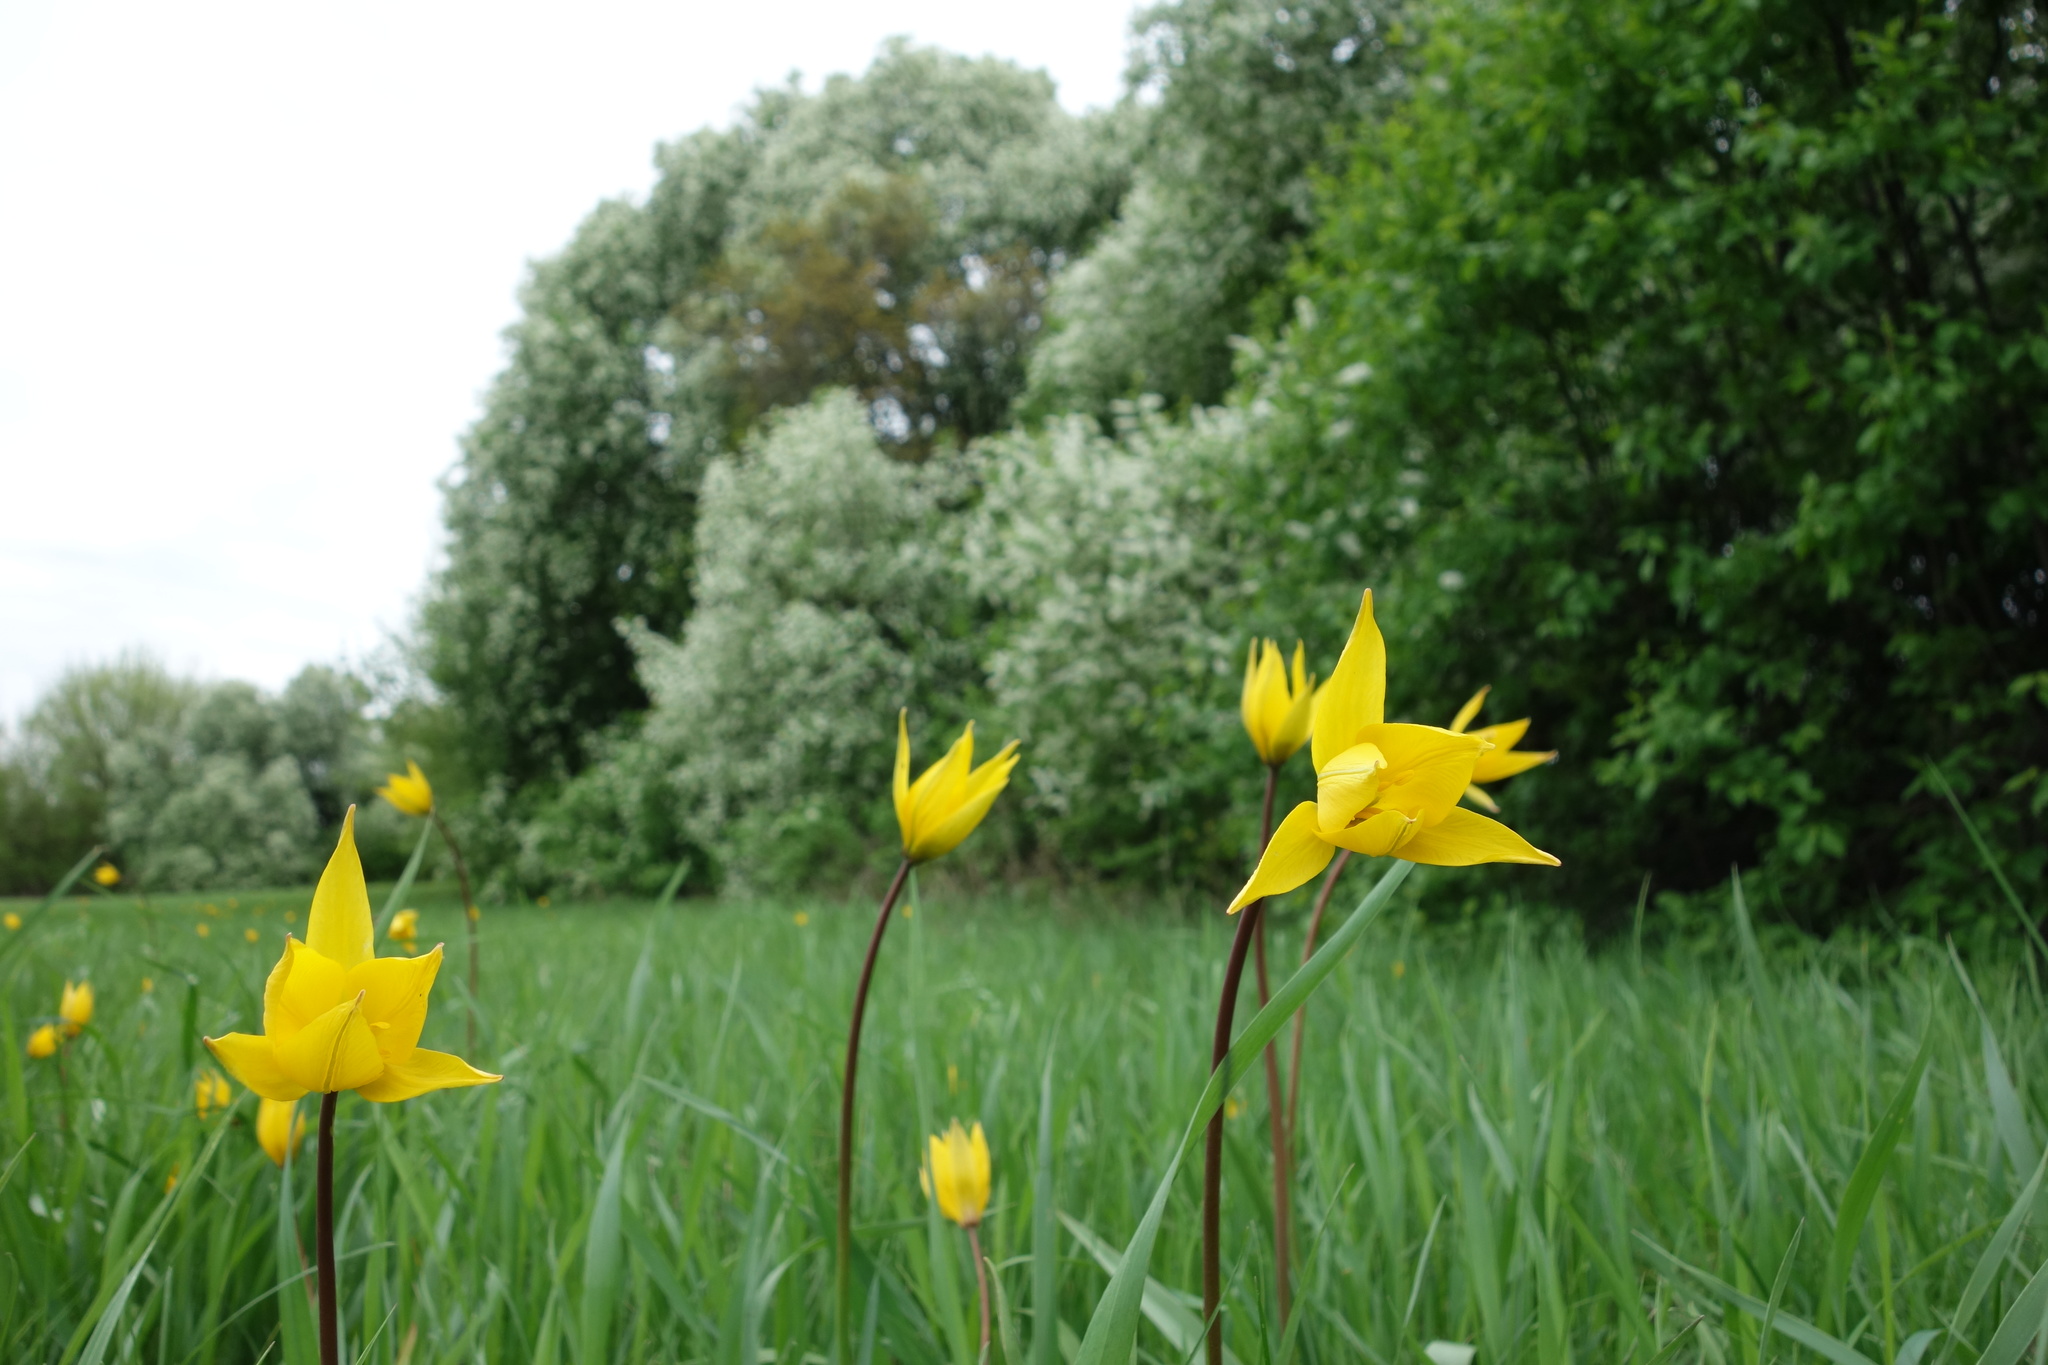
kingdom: Plantae
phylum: Tracheophyta
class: Liliopsida
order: Liliales
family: Liliaceae
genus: Tulipa
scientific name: Tulipa sylvestris
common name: Wild tulip
